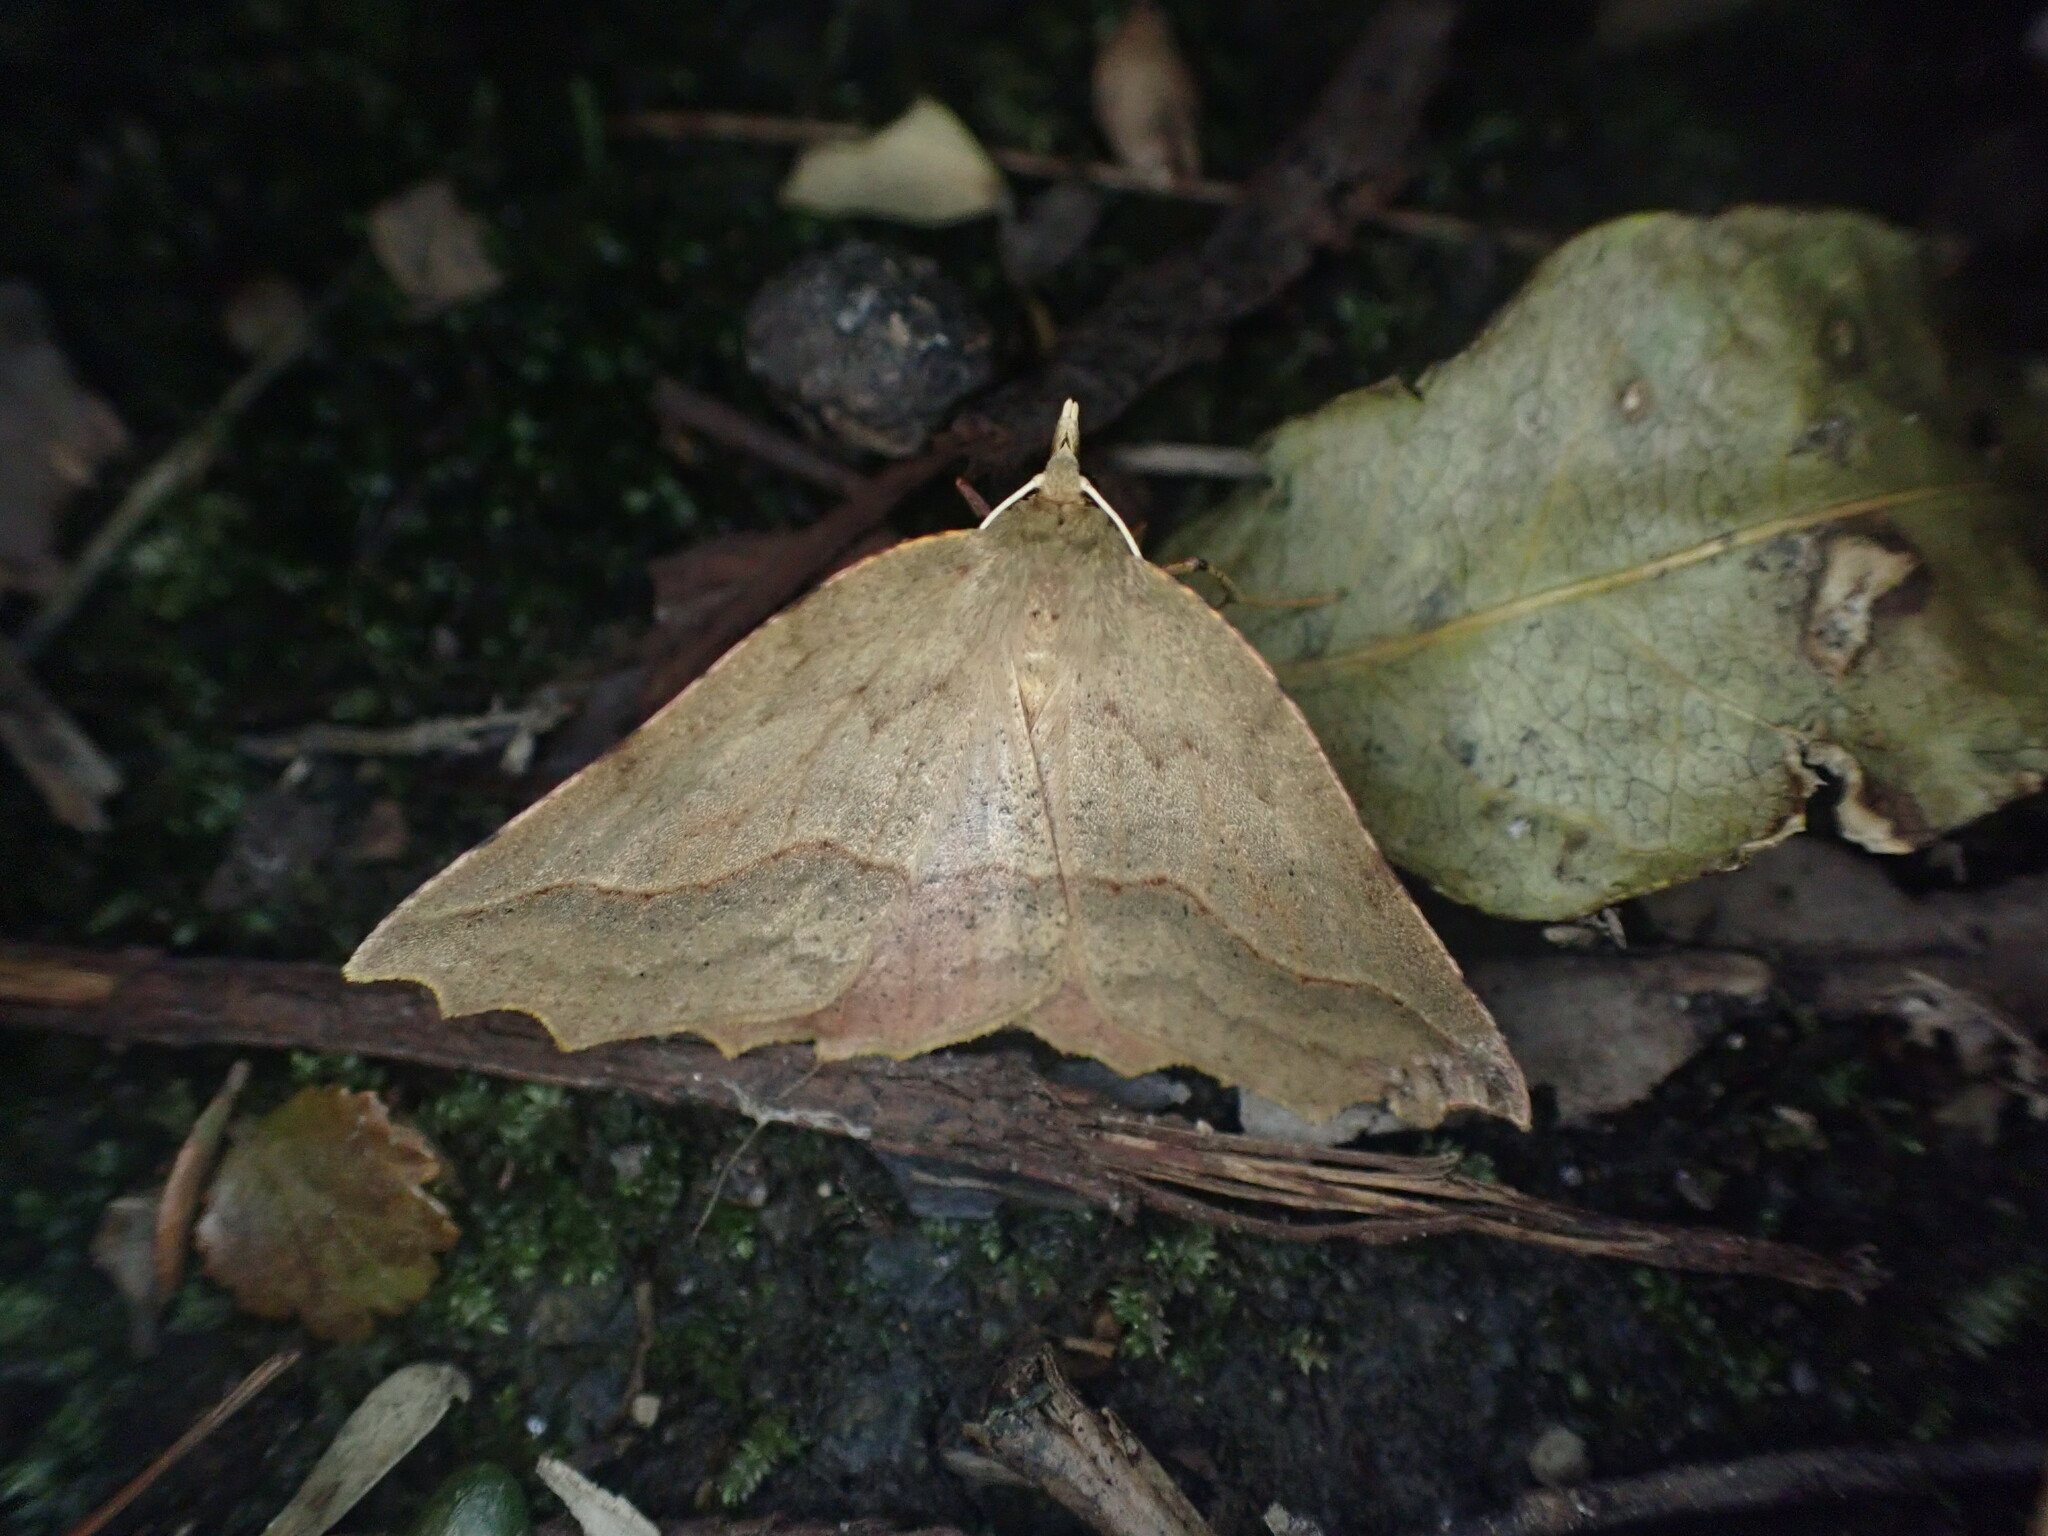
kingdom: Animalia
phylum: Arthropoda
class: Insecta
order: Lepidoptera
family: Geometridae
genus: Ischalis
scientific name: Ischalis variabilis
